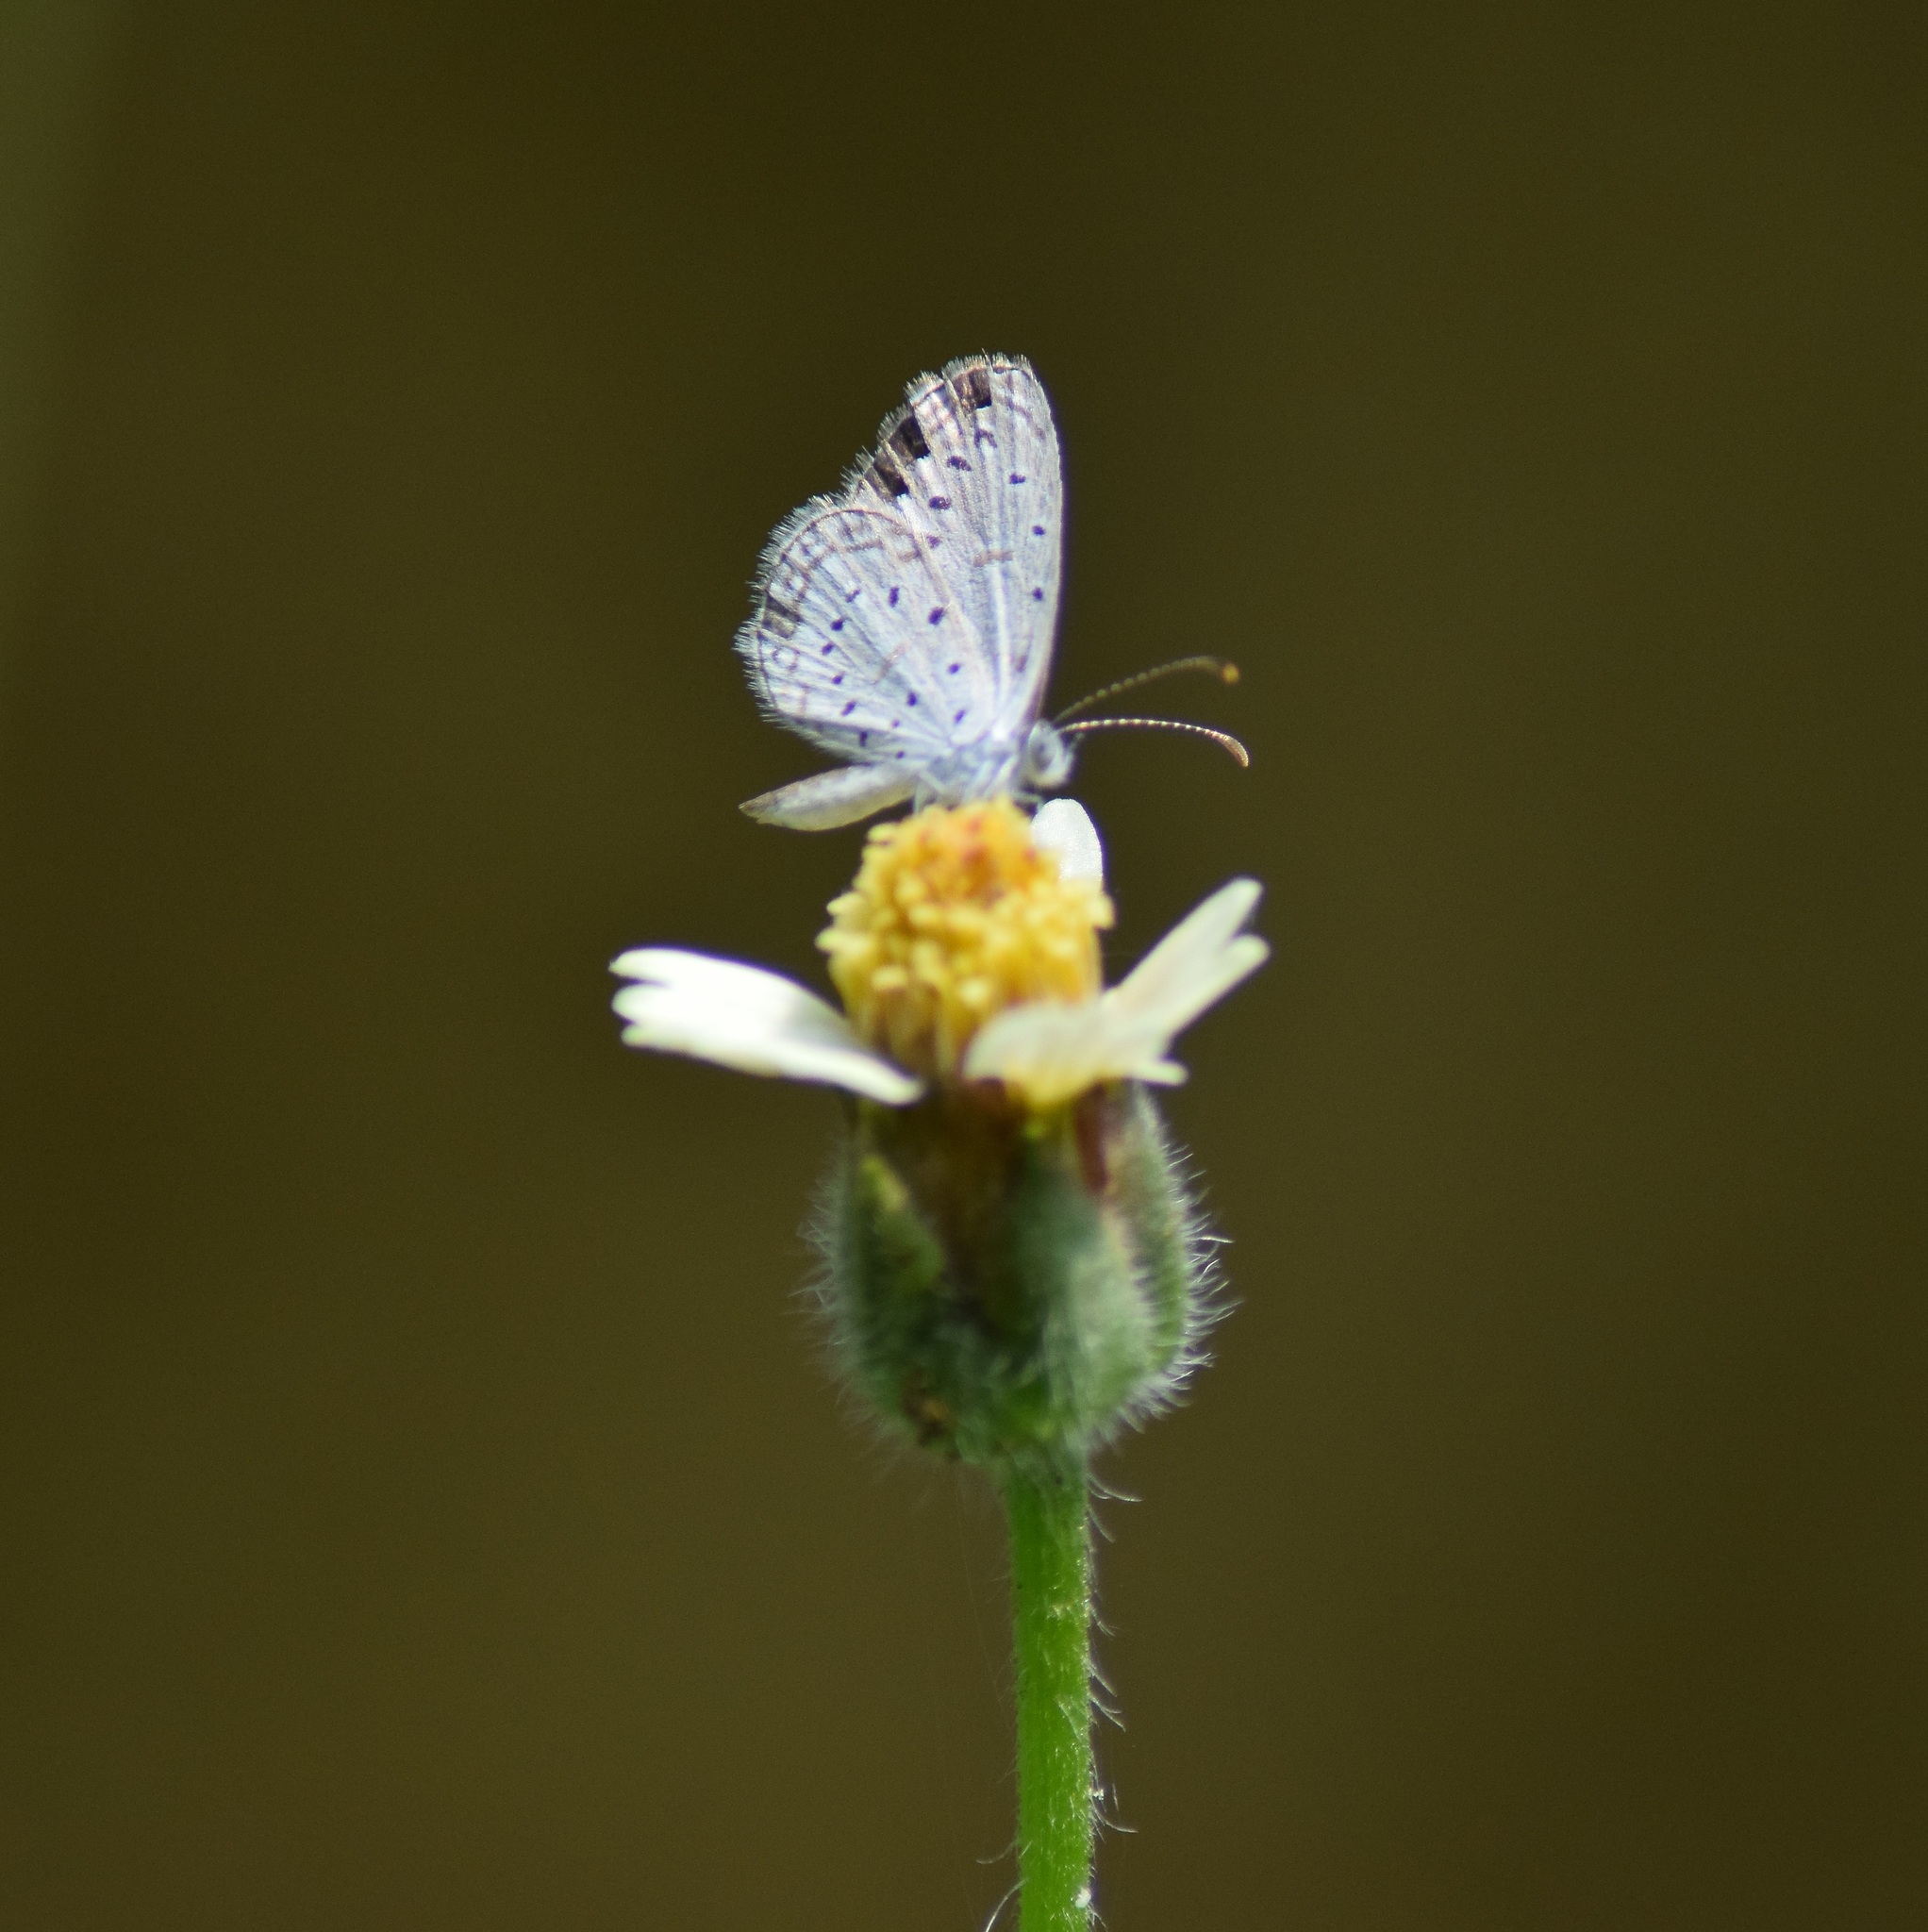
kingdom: Animalia
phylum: Arthropoda
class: Insecta
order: Lepidoptera
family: Lycaenidae
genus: Zizula
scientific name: Zizula hylax
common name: Gaika blue
